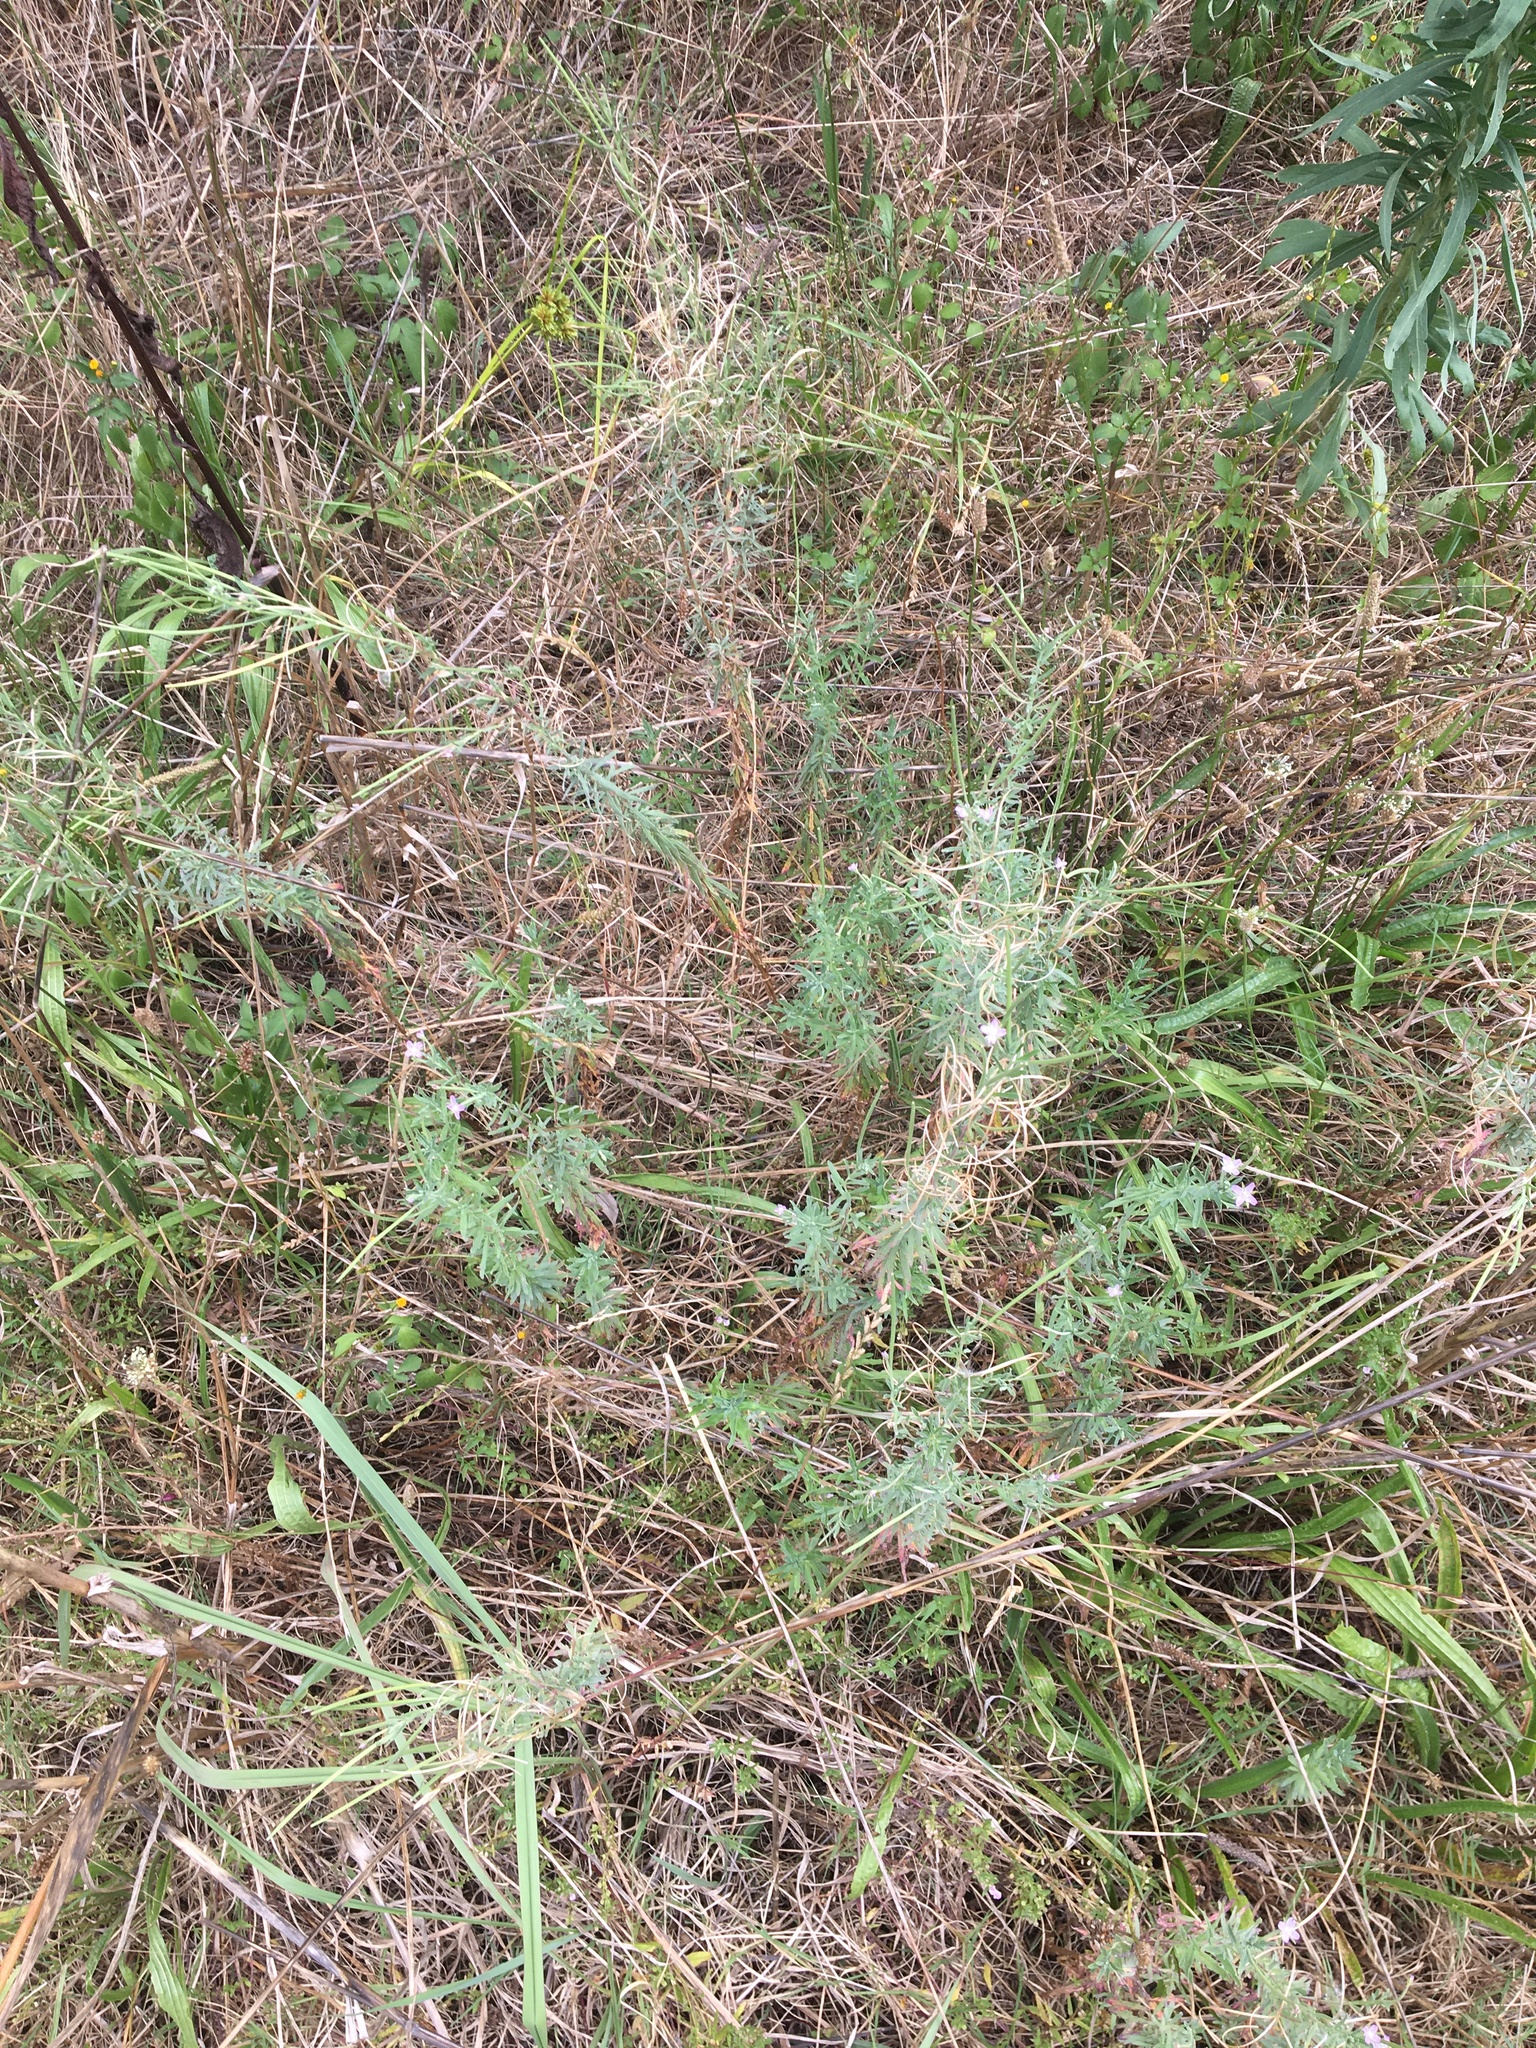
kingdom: Plantae
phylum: Tracheophyta
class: Magnoliopsida
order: Myrtales
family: Onagraceae
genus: Epilobium
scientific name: Epilobium billardierianum
